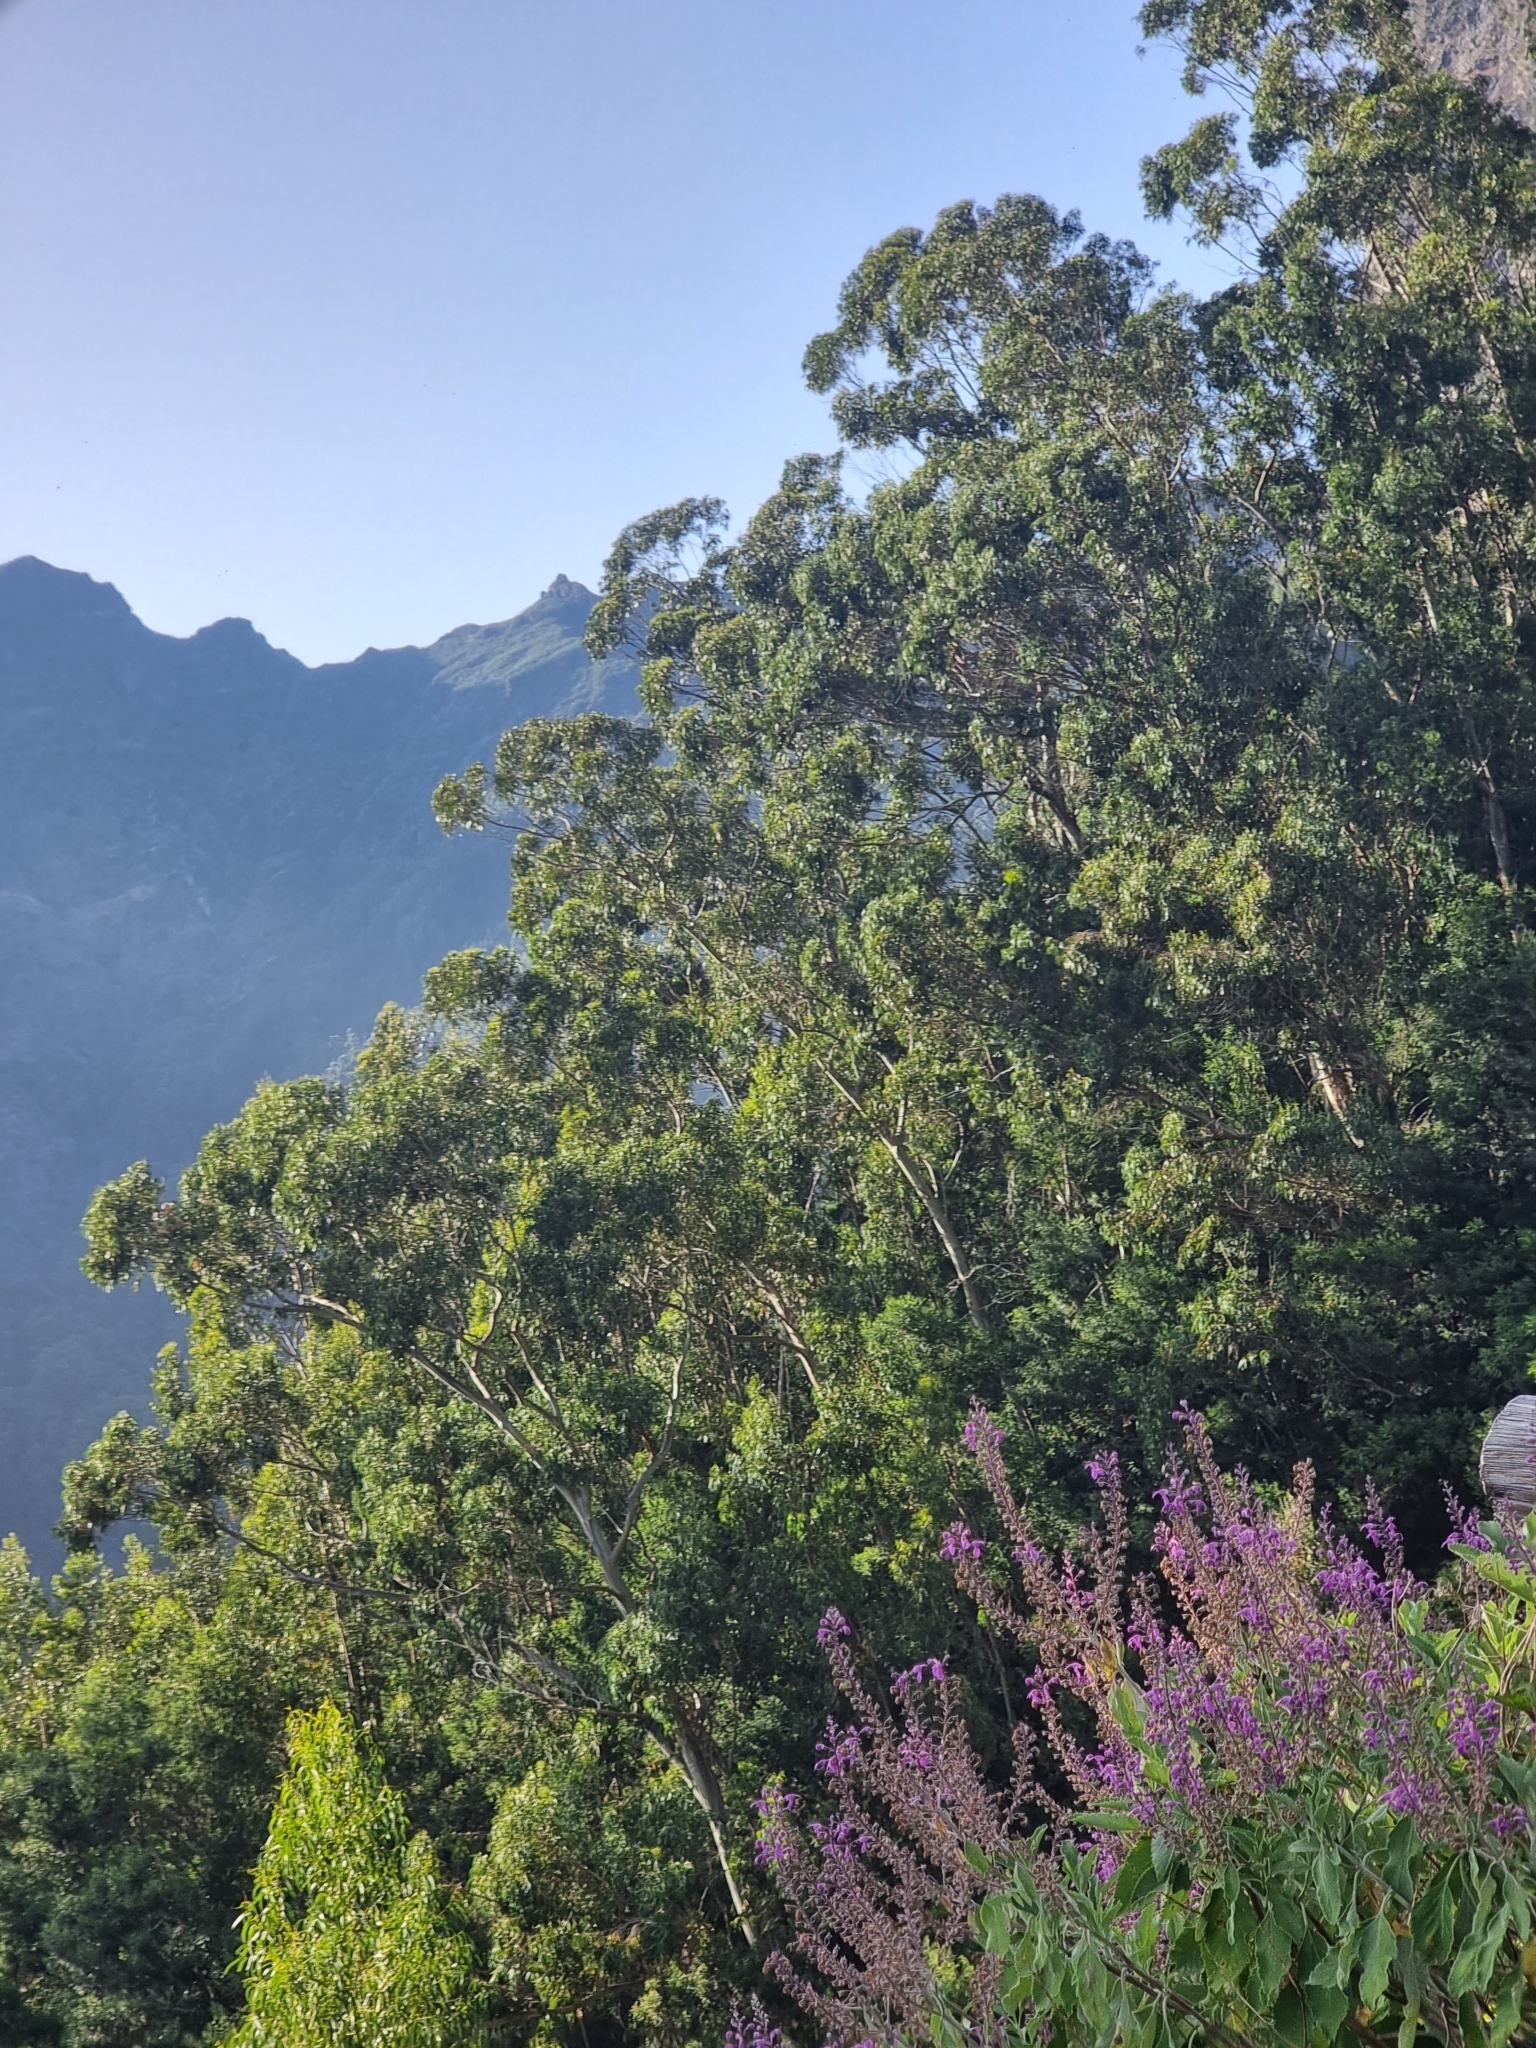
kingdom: Plantae
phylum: Tracheophyta
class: Magnoliopsida
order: Myrtales
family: Myrtaceae
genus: Eucalyptus
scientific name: Eucalyptus globulus
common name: Southern blue-gum
